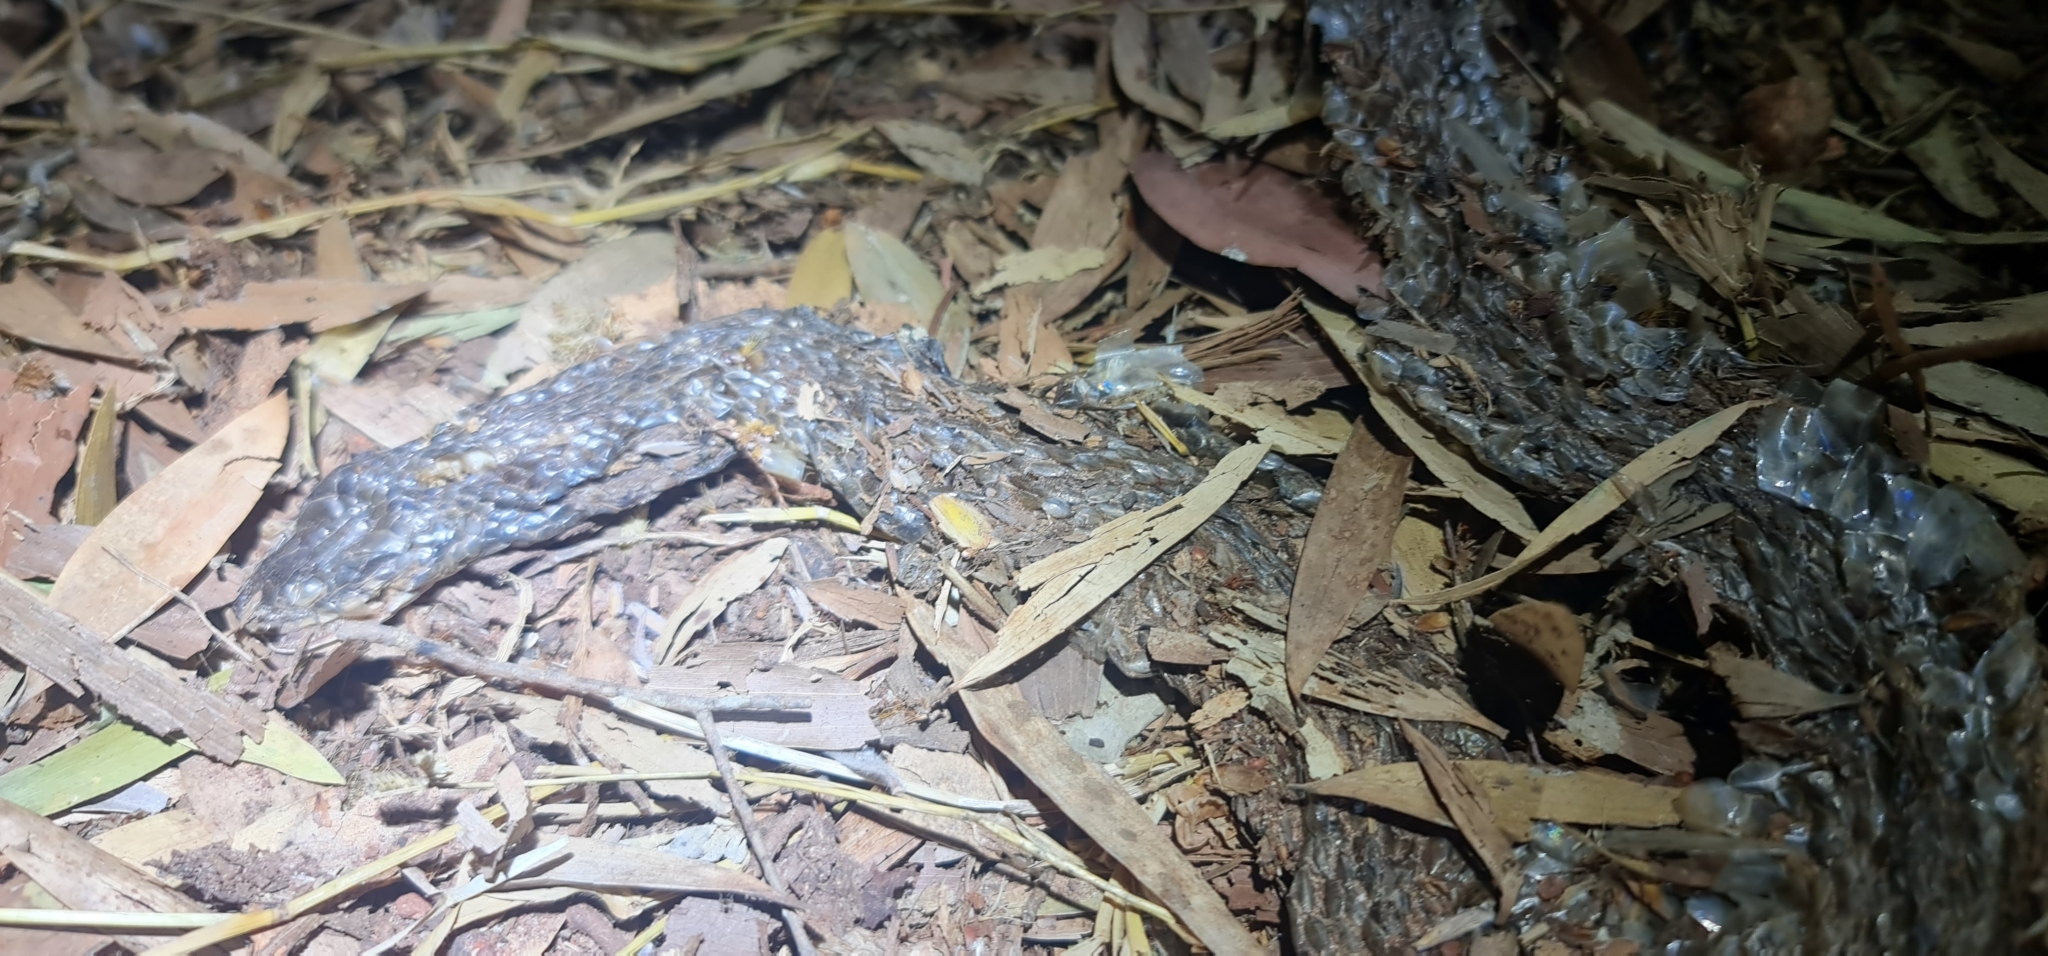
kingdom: Animalia
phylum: Chordata
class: Squamata
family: Colubridae
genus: Tropidonophis
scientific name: Tropidonophis mairii
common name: Common keelback
